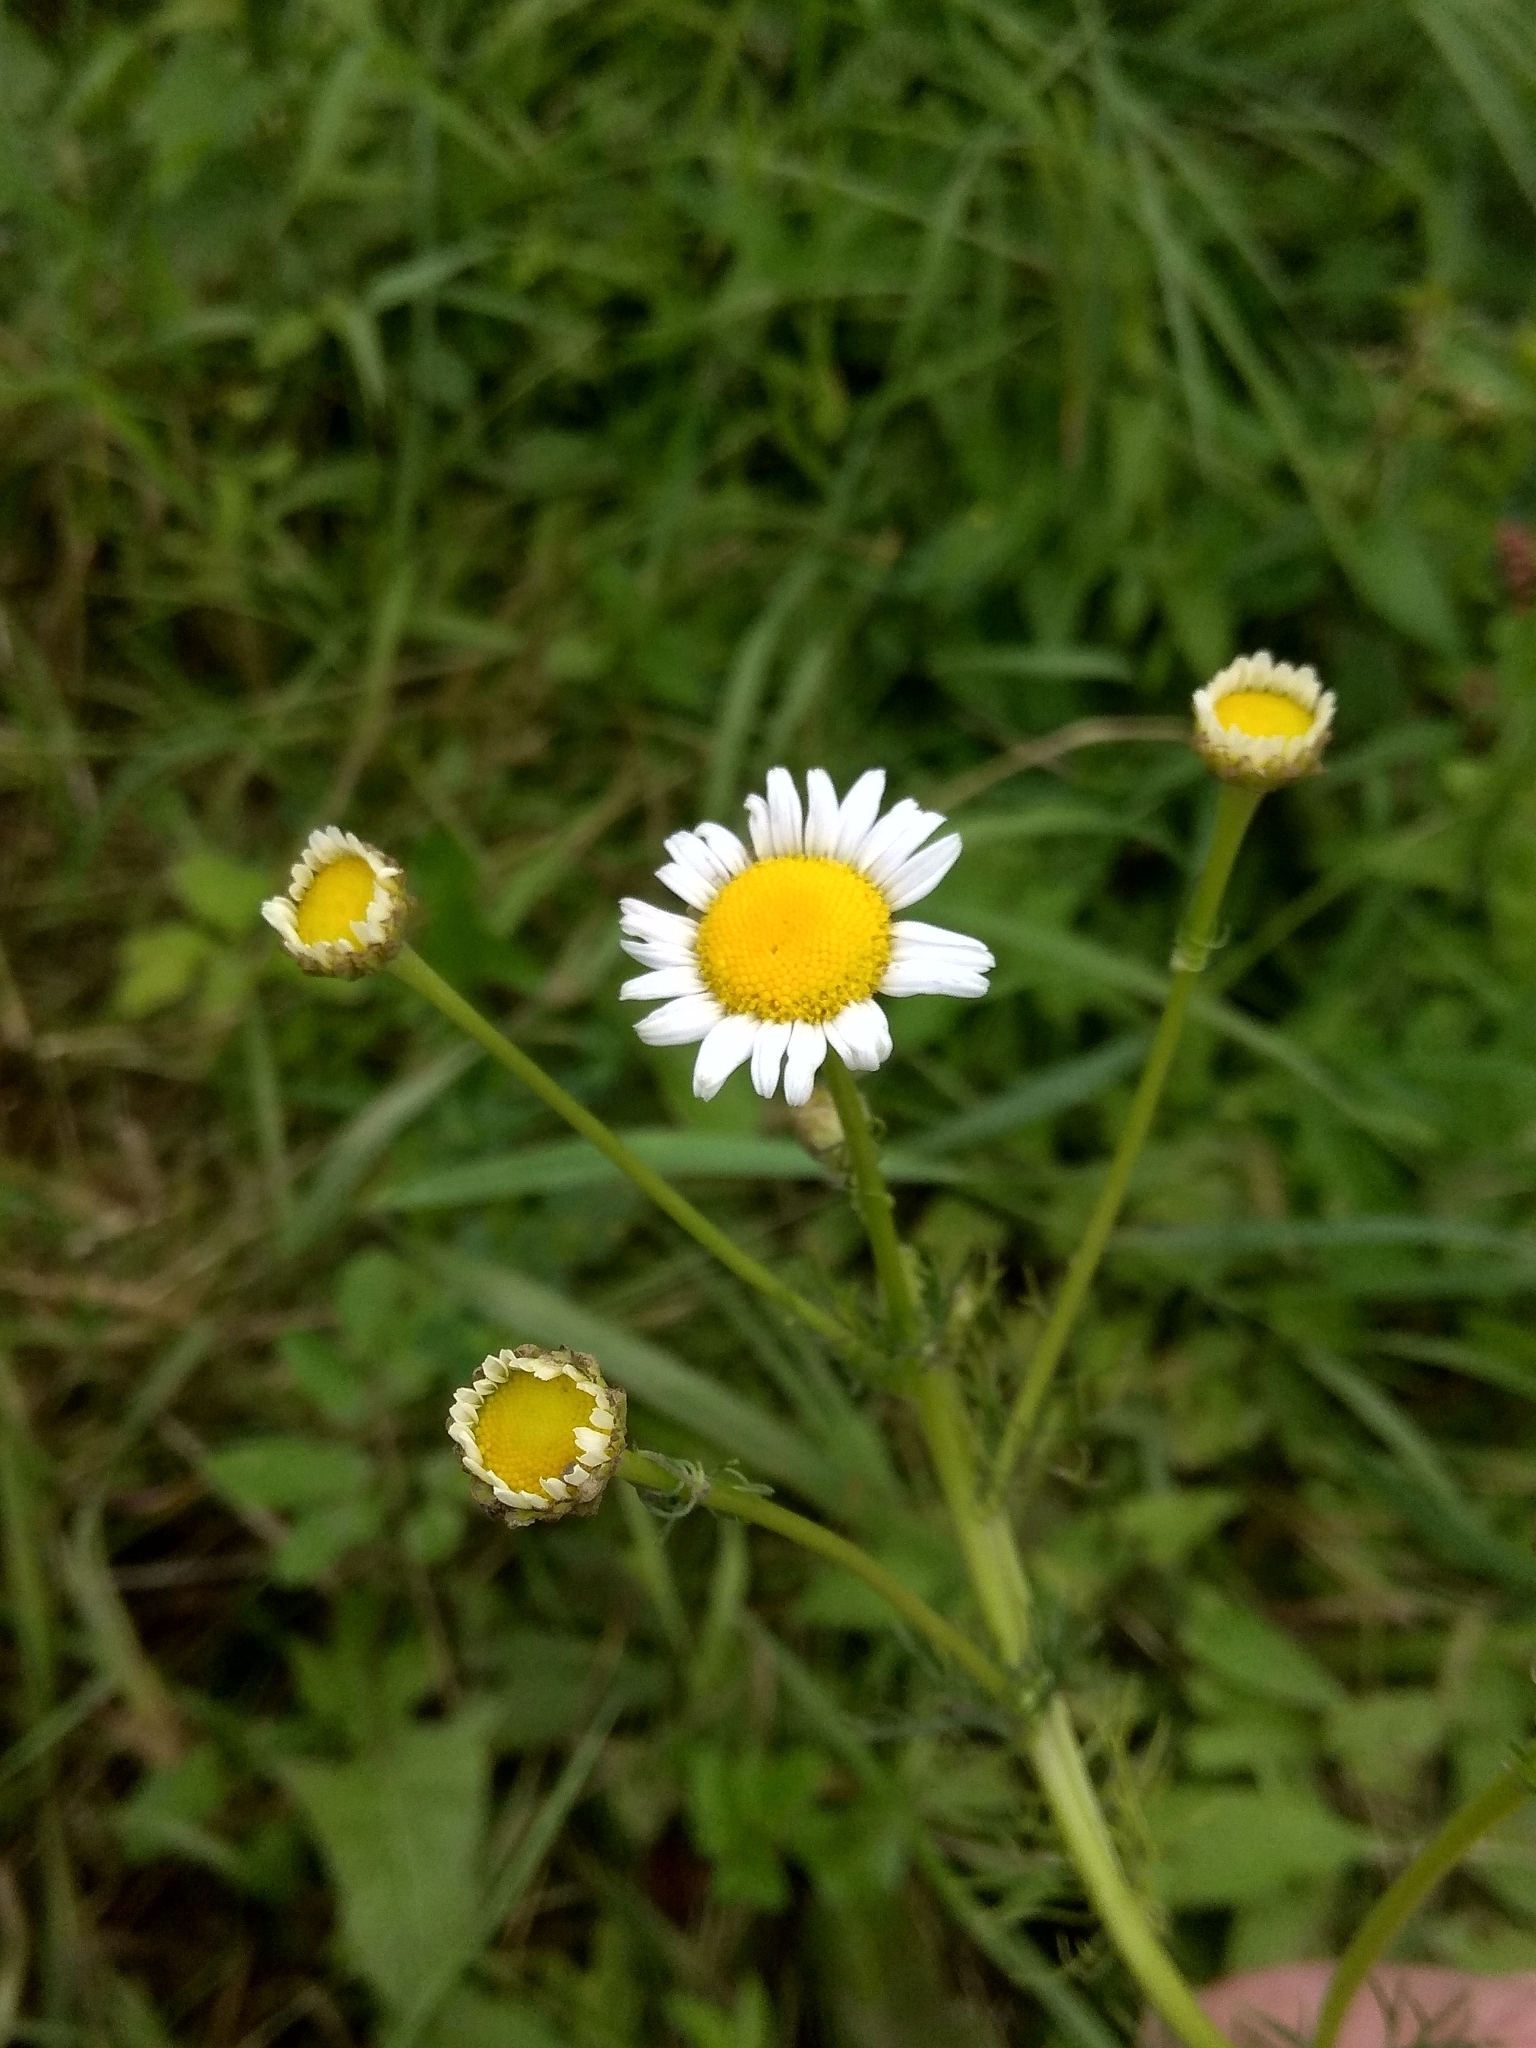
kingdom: Plantae
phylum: Tracheophyta
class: Magnoliopsida
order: Asterales
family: Asteraceae
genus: Tripleurospermum
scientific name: Tripleurospermum inodorum
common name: Scentless mayweed
